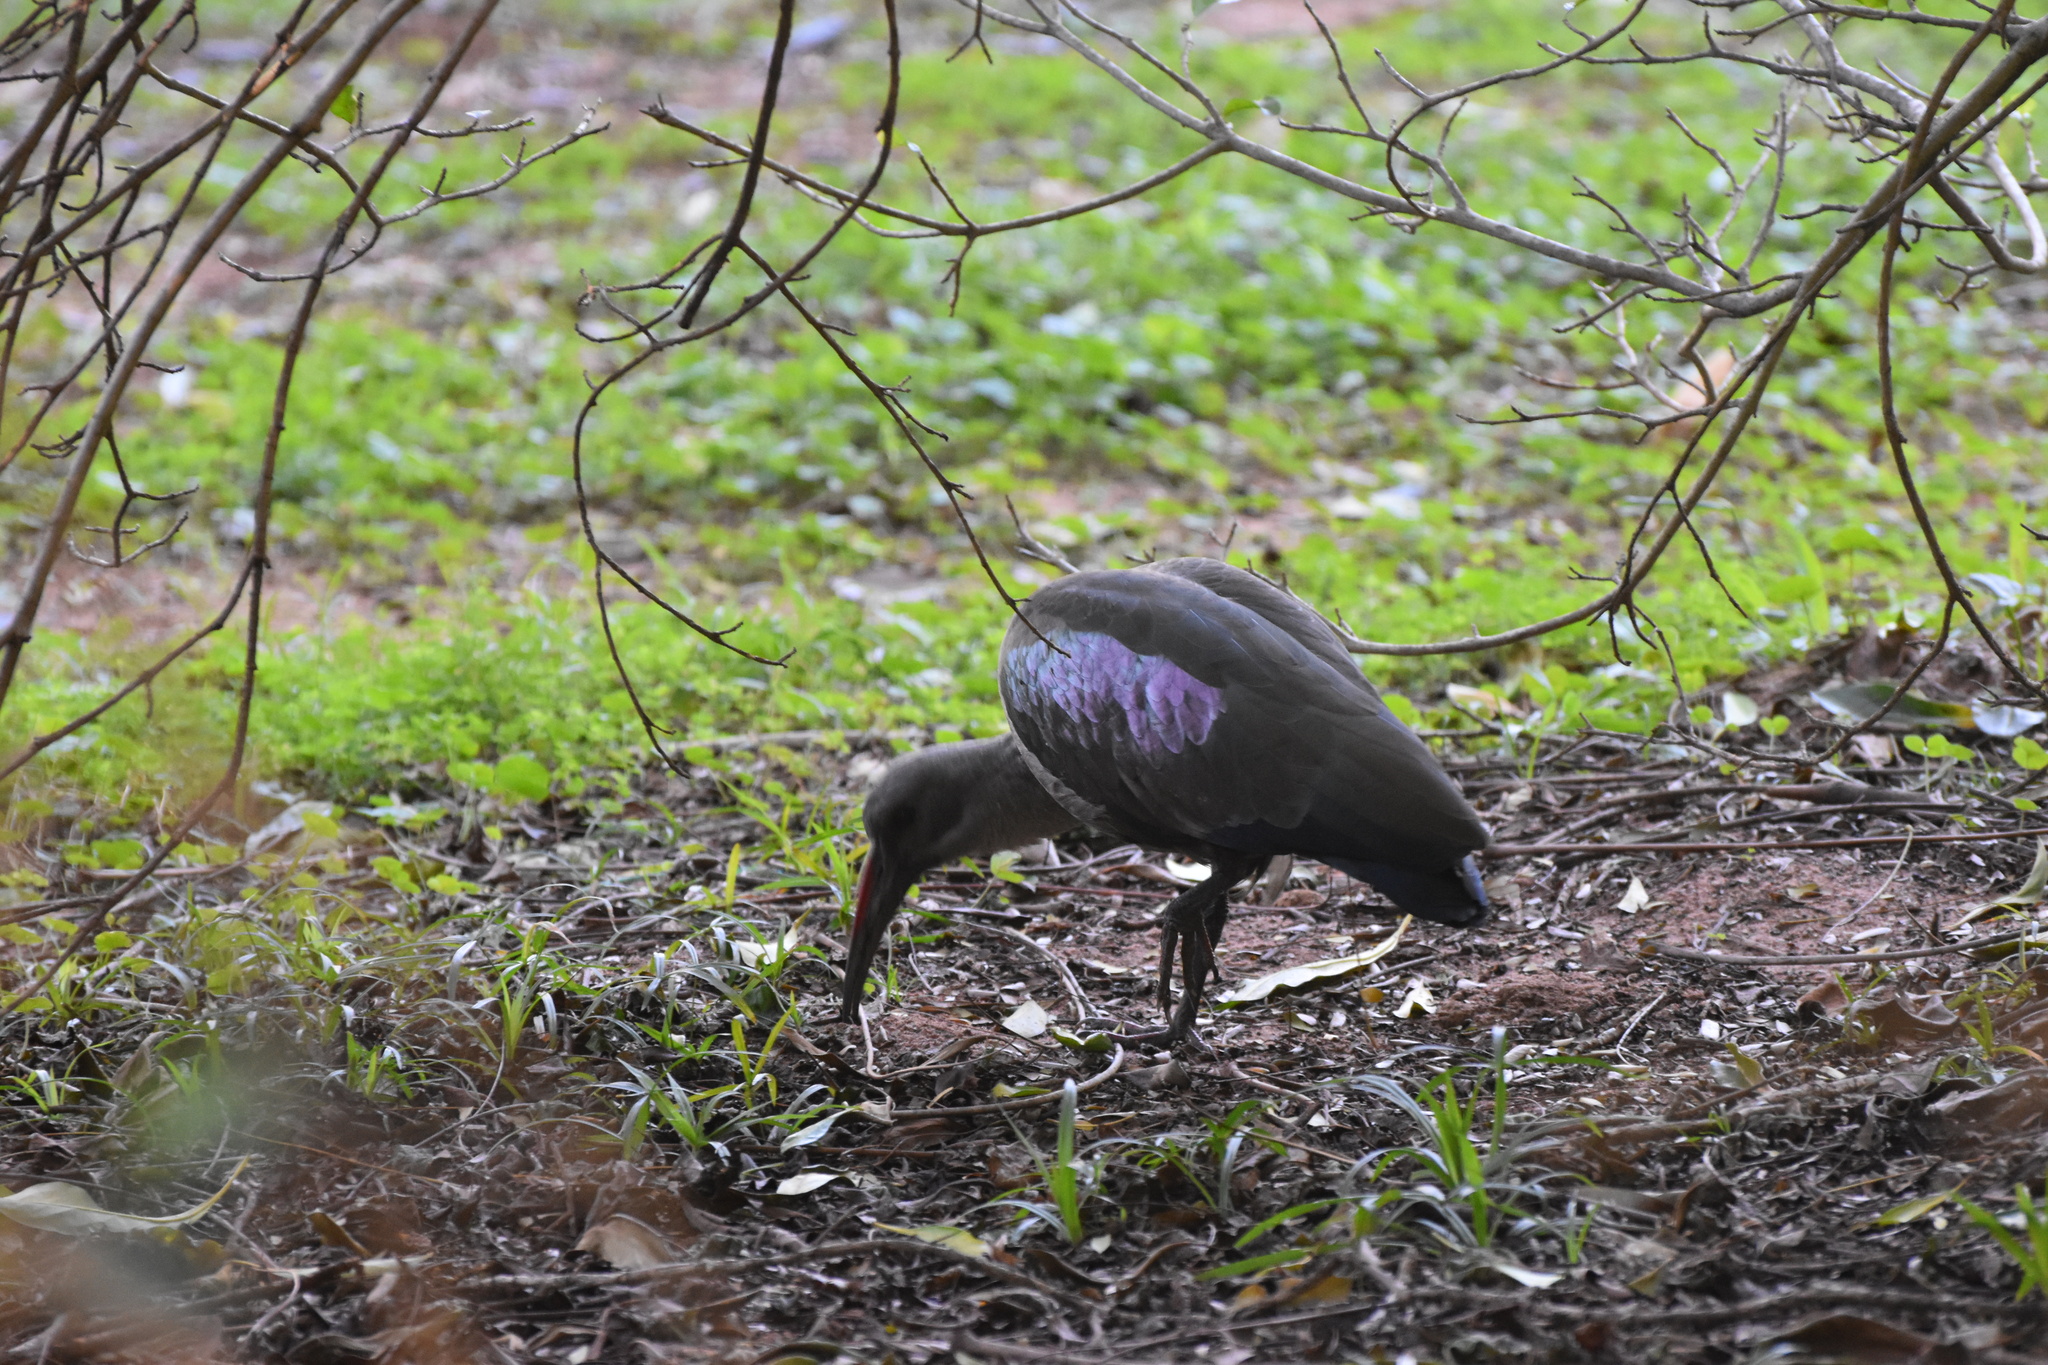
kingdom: Animalia
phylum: Chordata
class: Aves
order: Pelecaniformes
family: Threskiornithidae
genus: Bostrychia
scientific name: Bostrychia hagedash
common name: Hadada ibis
